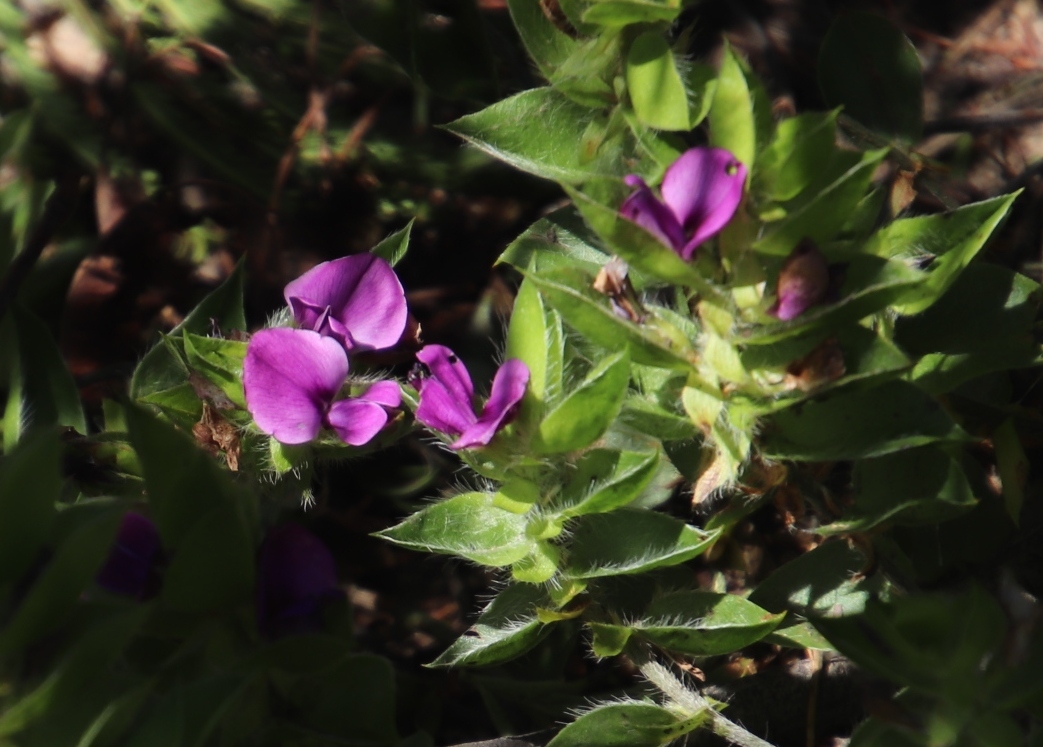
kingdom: Plantae
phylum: Tracheophyta
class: Magnoliopsida
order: Fabales
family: Fabaceae
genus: Psoralea
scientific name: Psoralea imbricata
